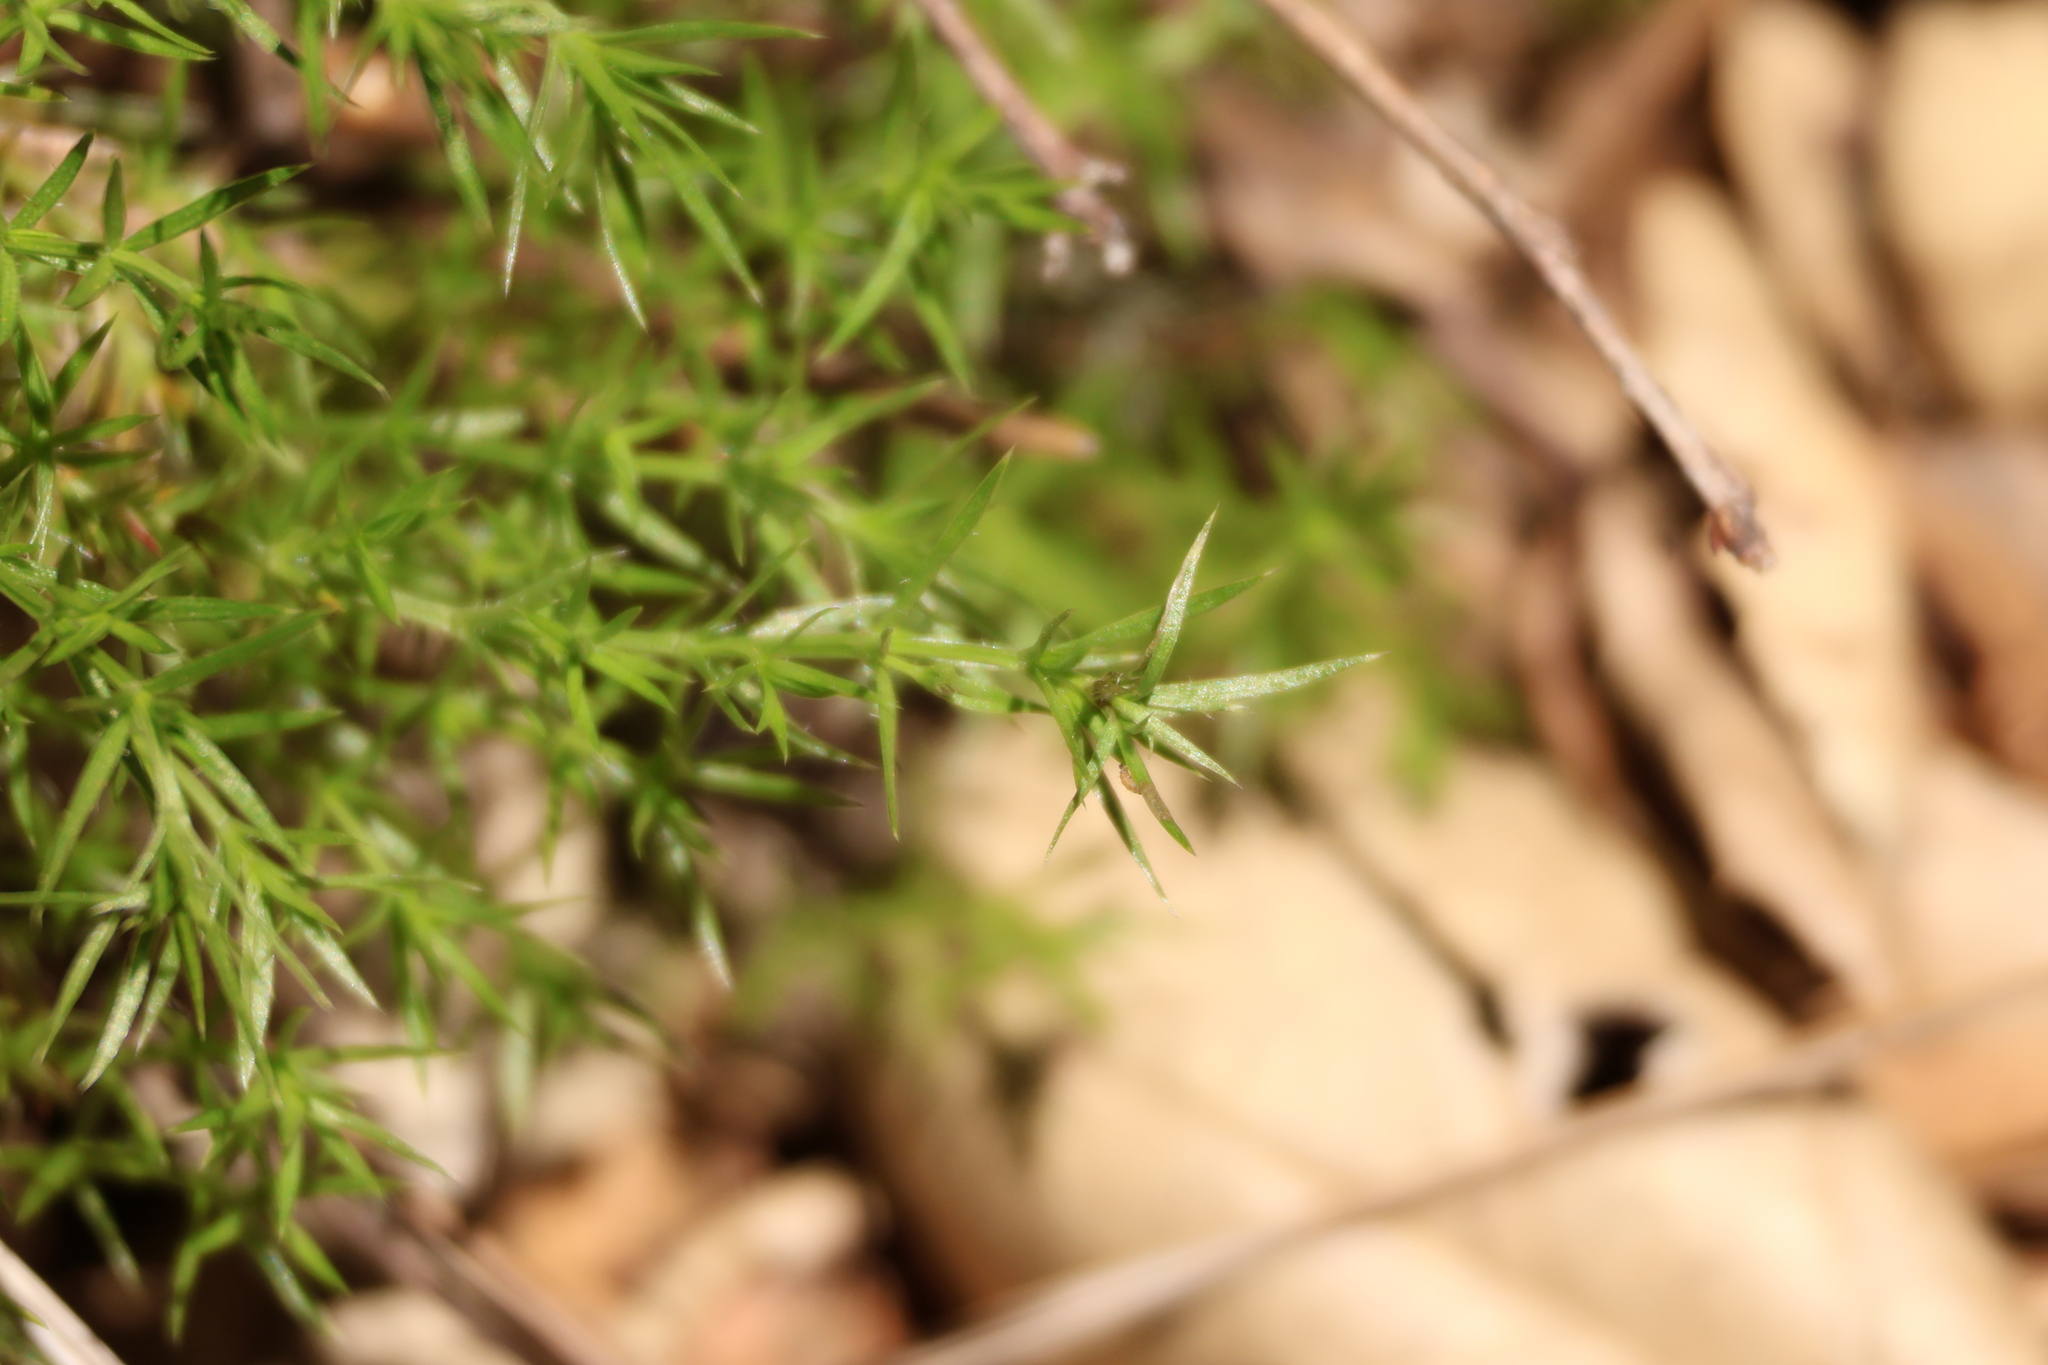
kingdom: Plantae
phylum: Tracheophyta
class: Magnoliopsida
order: Gentianales
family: Rubiaceae
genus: Galium
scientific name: Galium andrewsii
